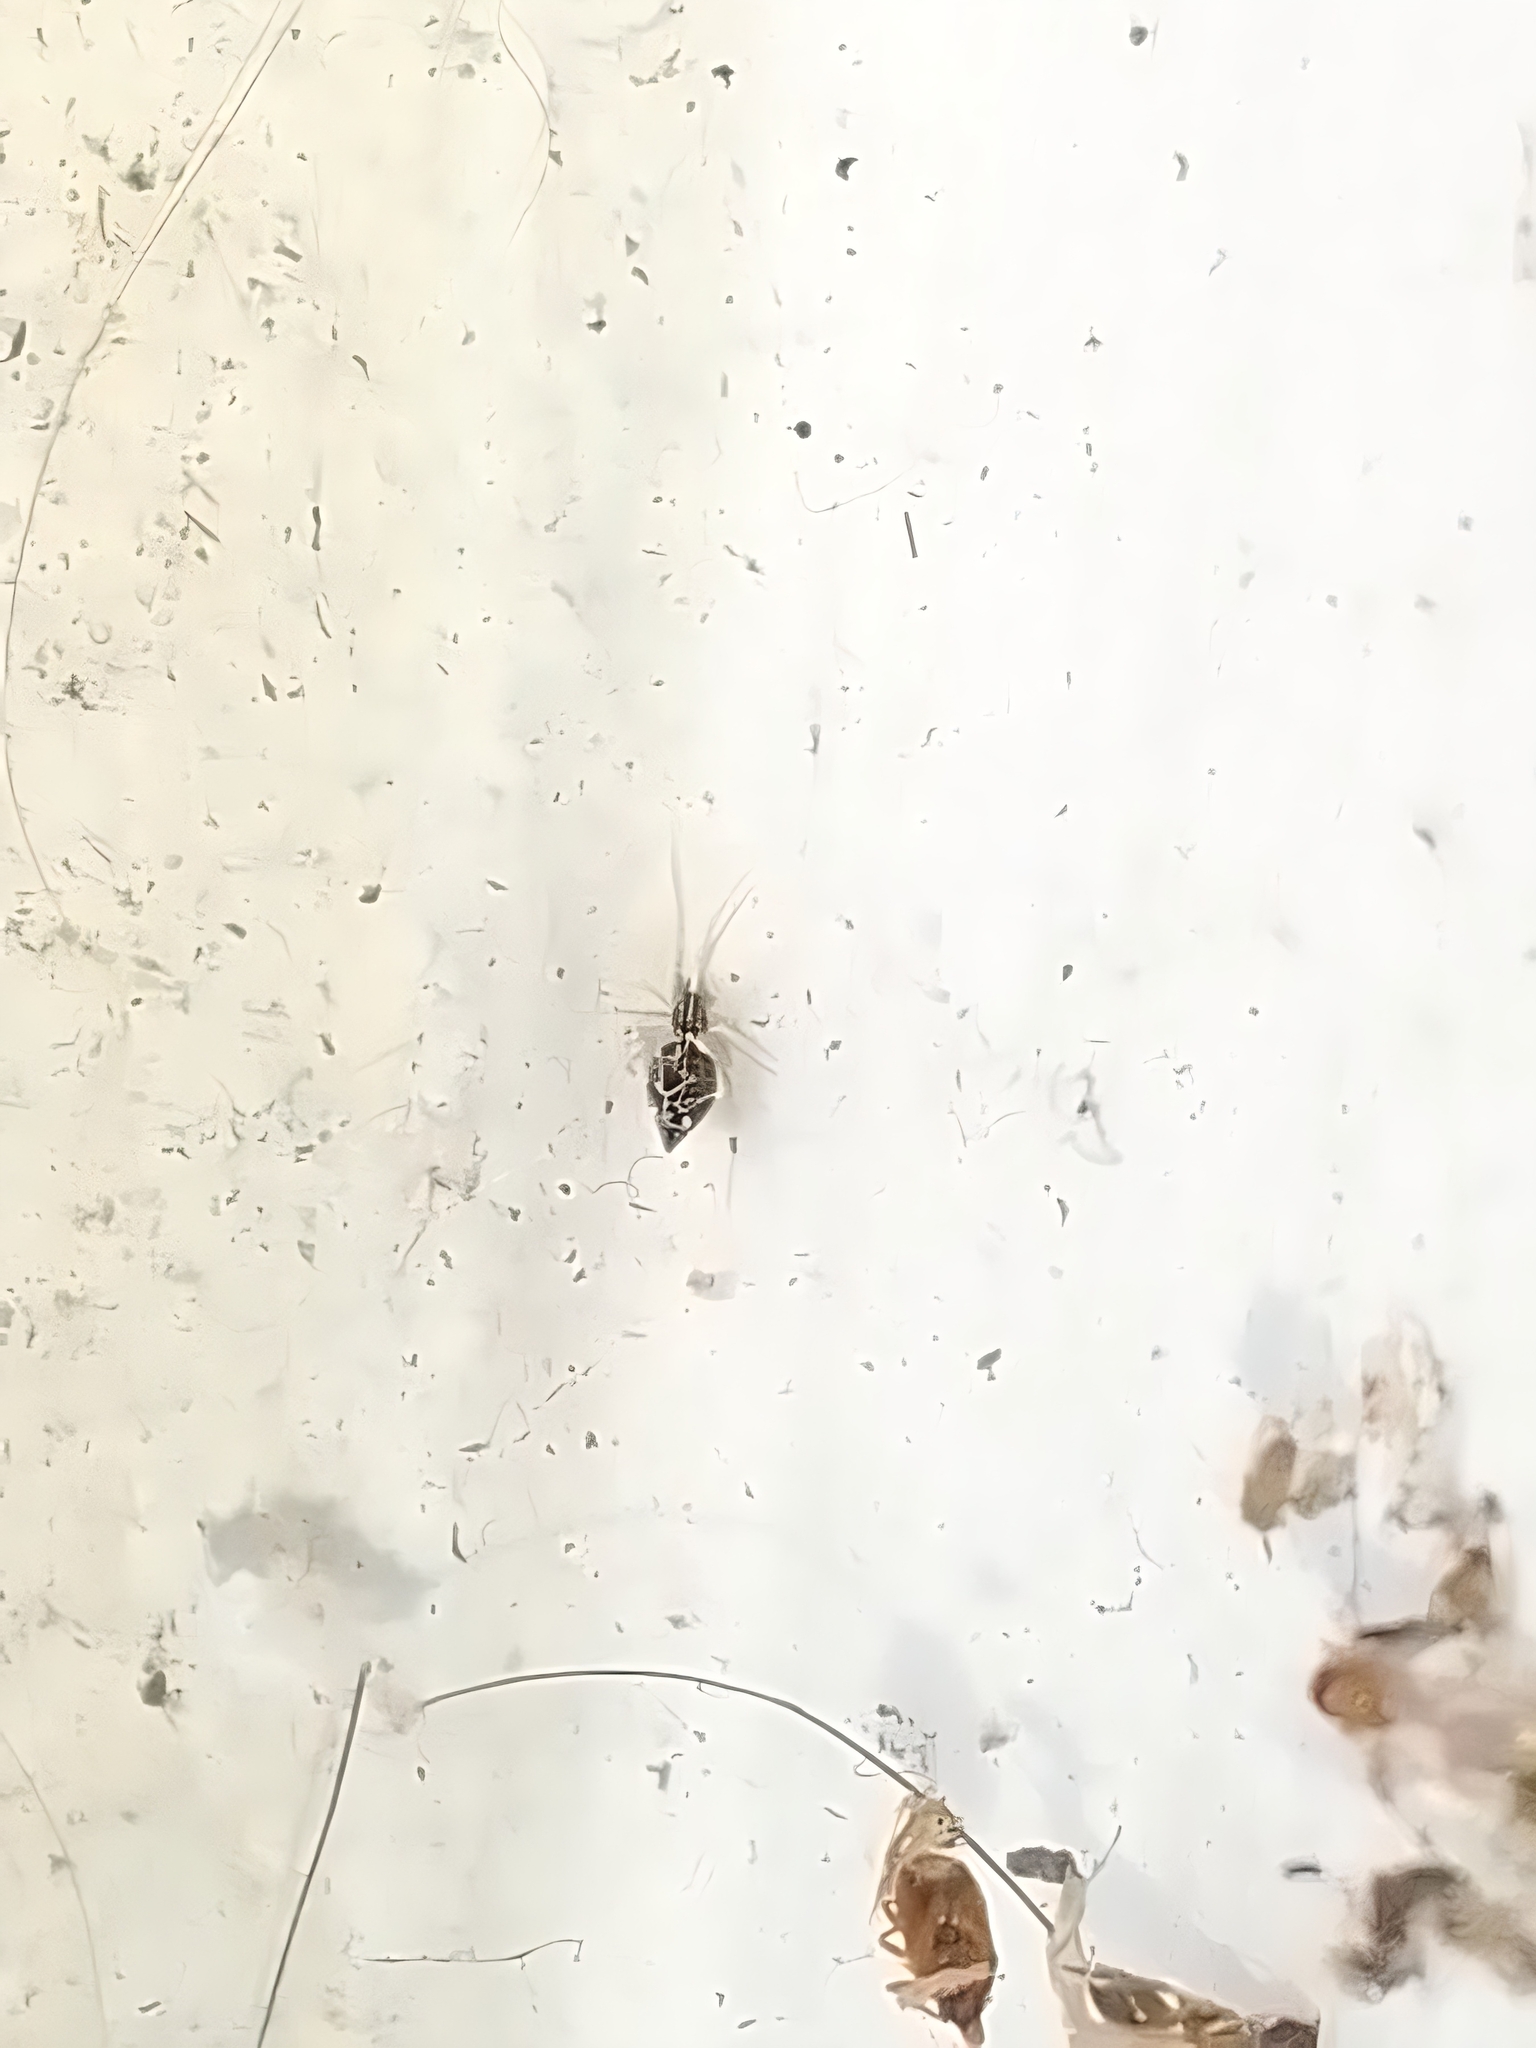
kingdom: Animalia
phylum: Arthropoda
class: Arachnida
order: Araneae
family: Theridiidae
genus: Coleosoma
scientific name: Coleosoma acutiventer
